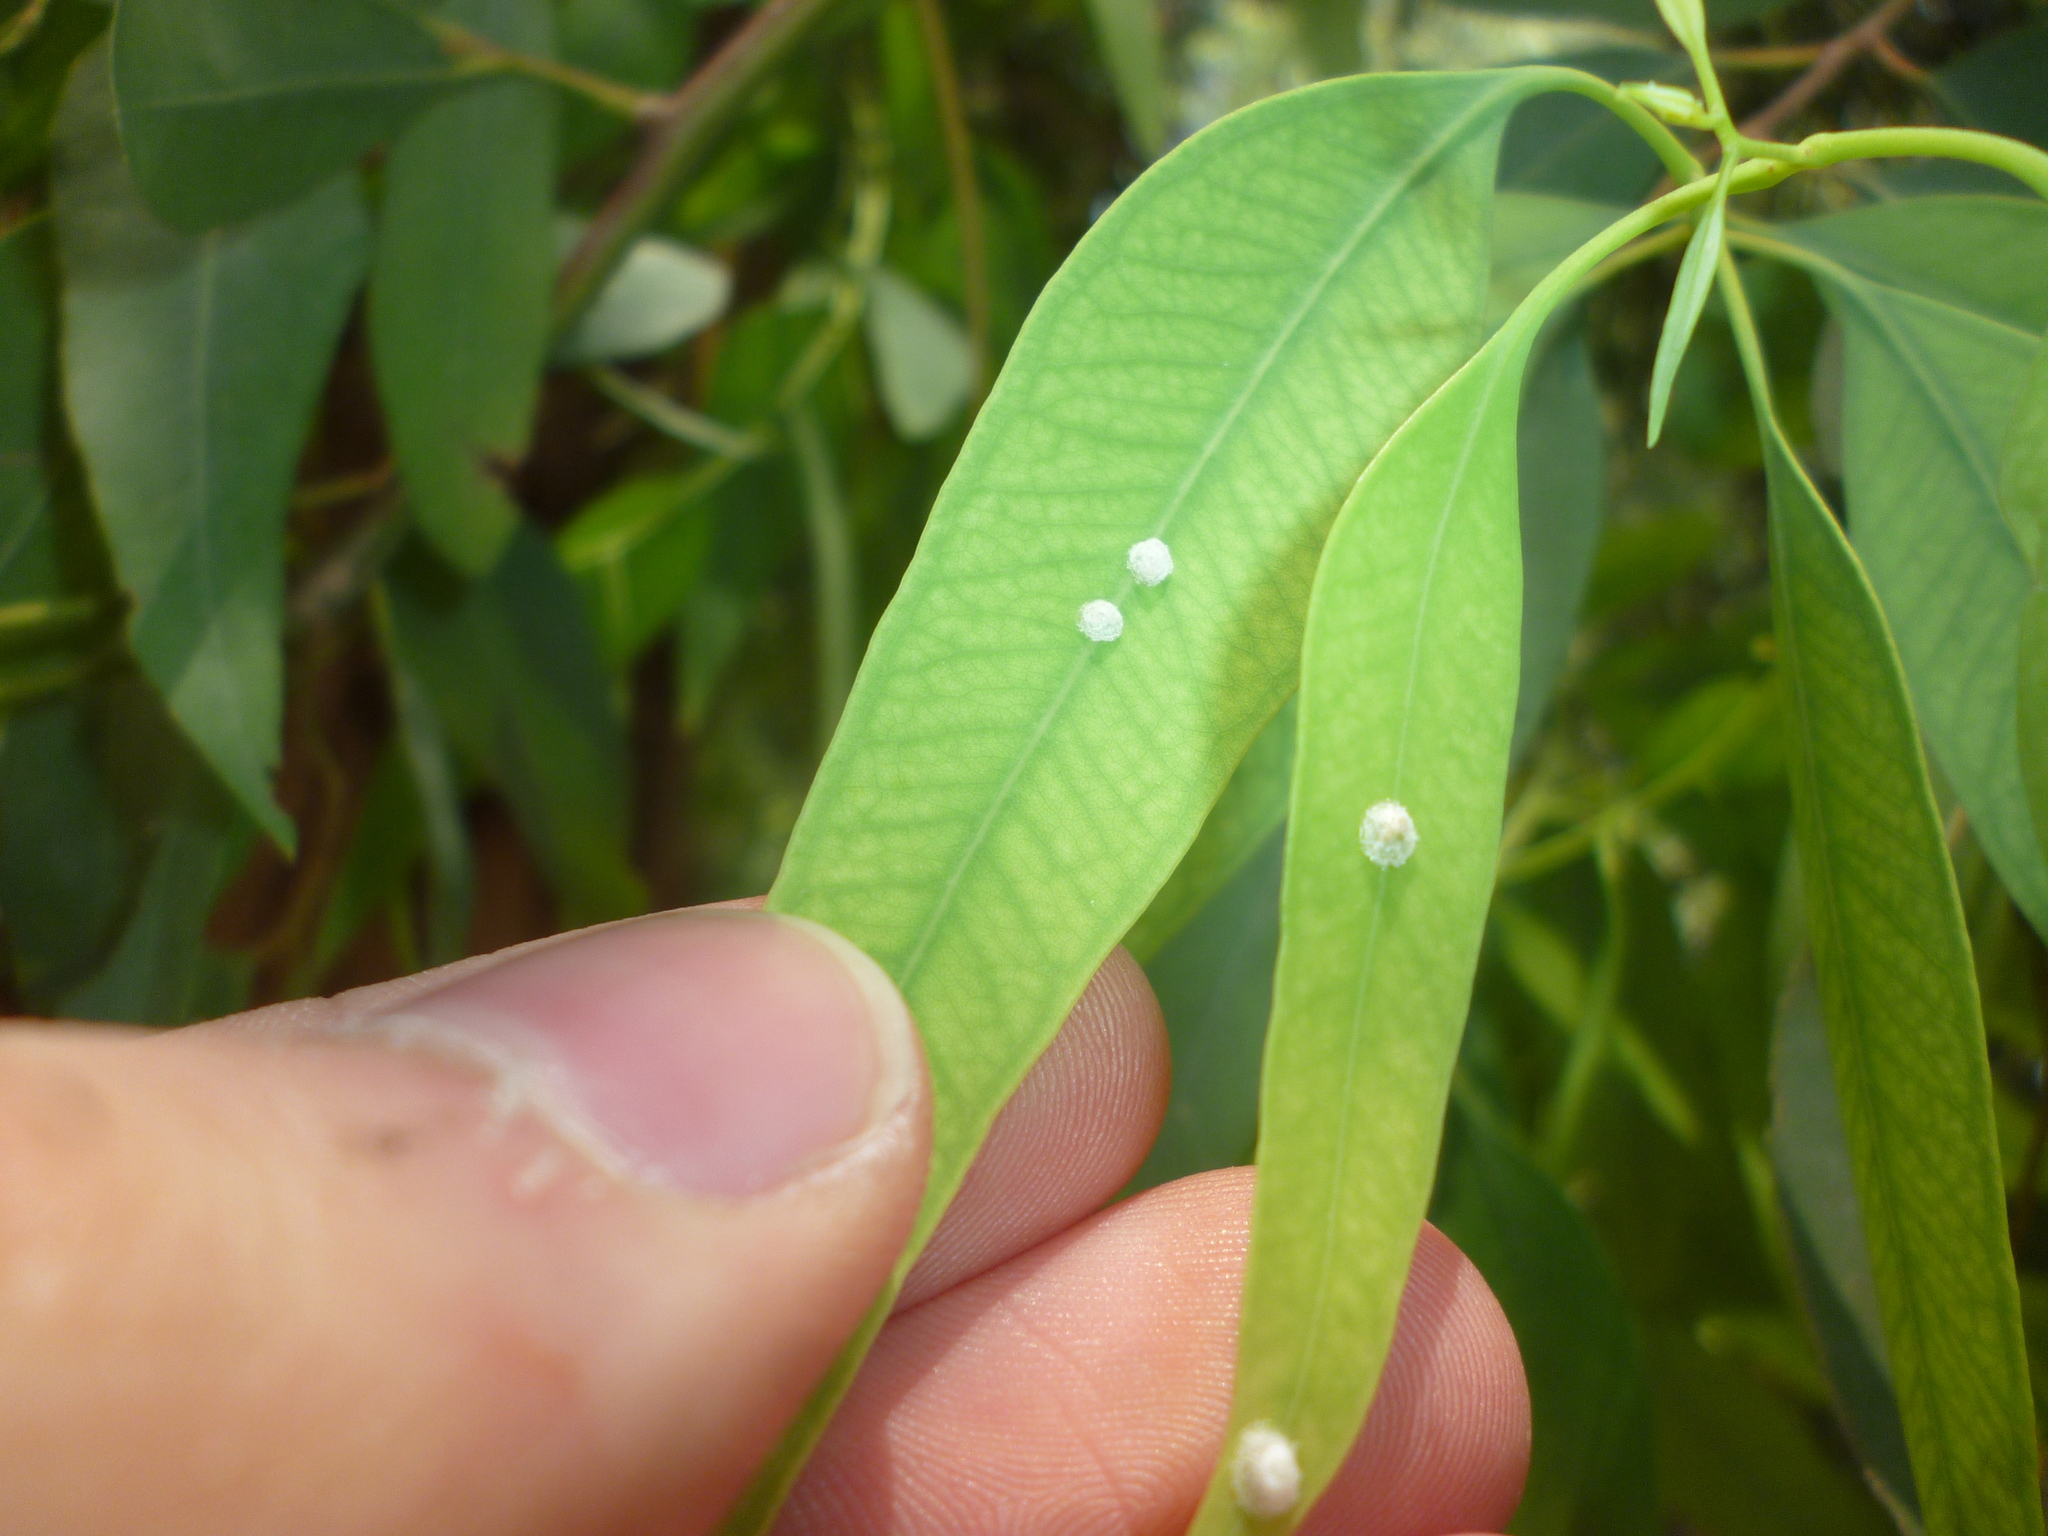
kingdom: Animalia
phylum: Arthropoda
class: Insecta
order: Hemiptera
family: Aphalaridae
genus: Glycaspis
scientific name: Glycaspis brimblecombei
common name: Red gum lerp psyllid
